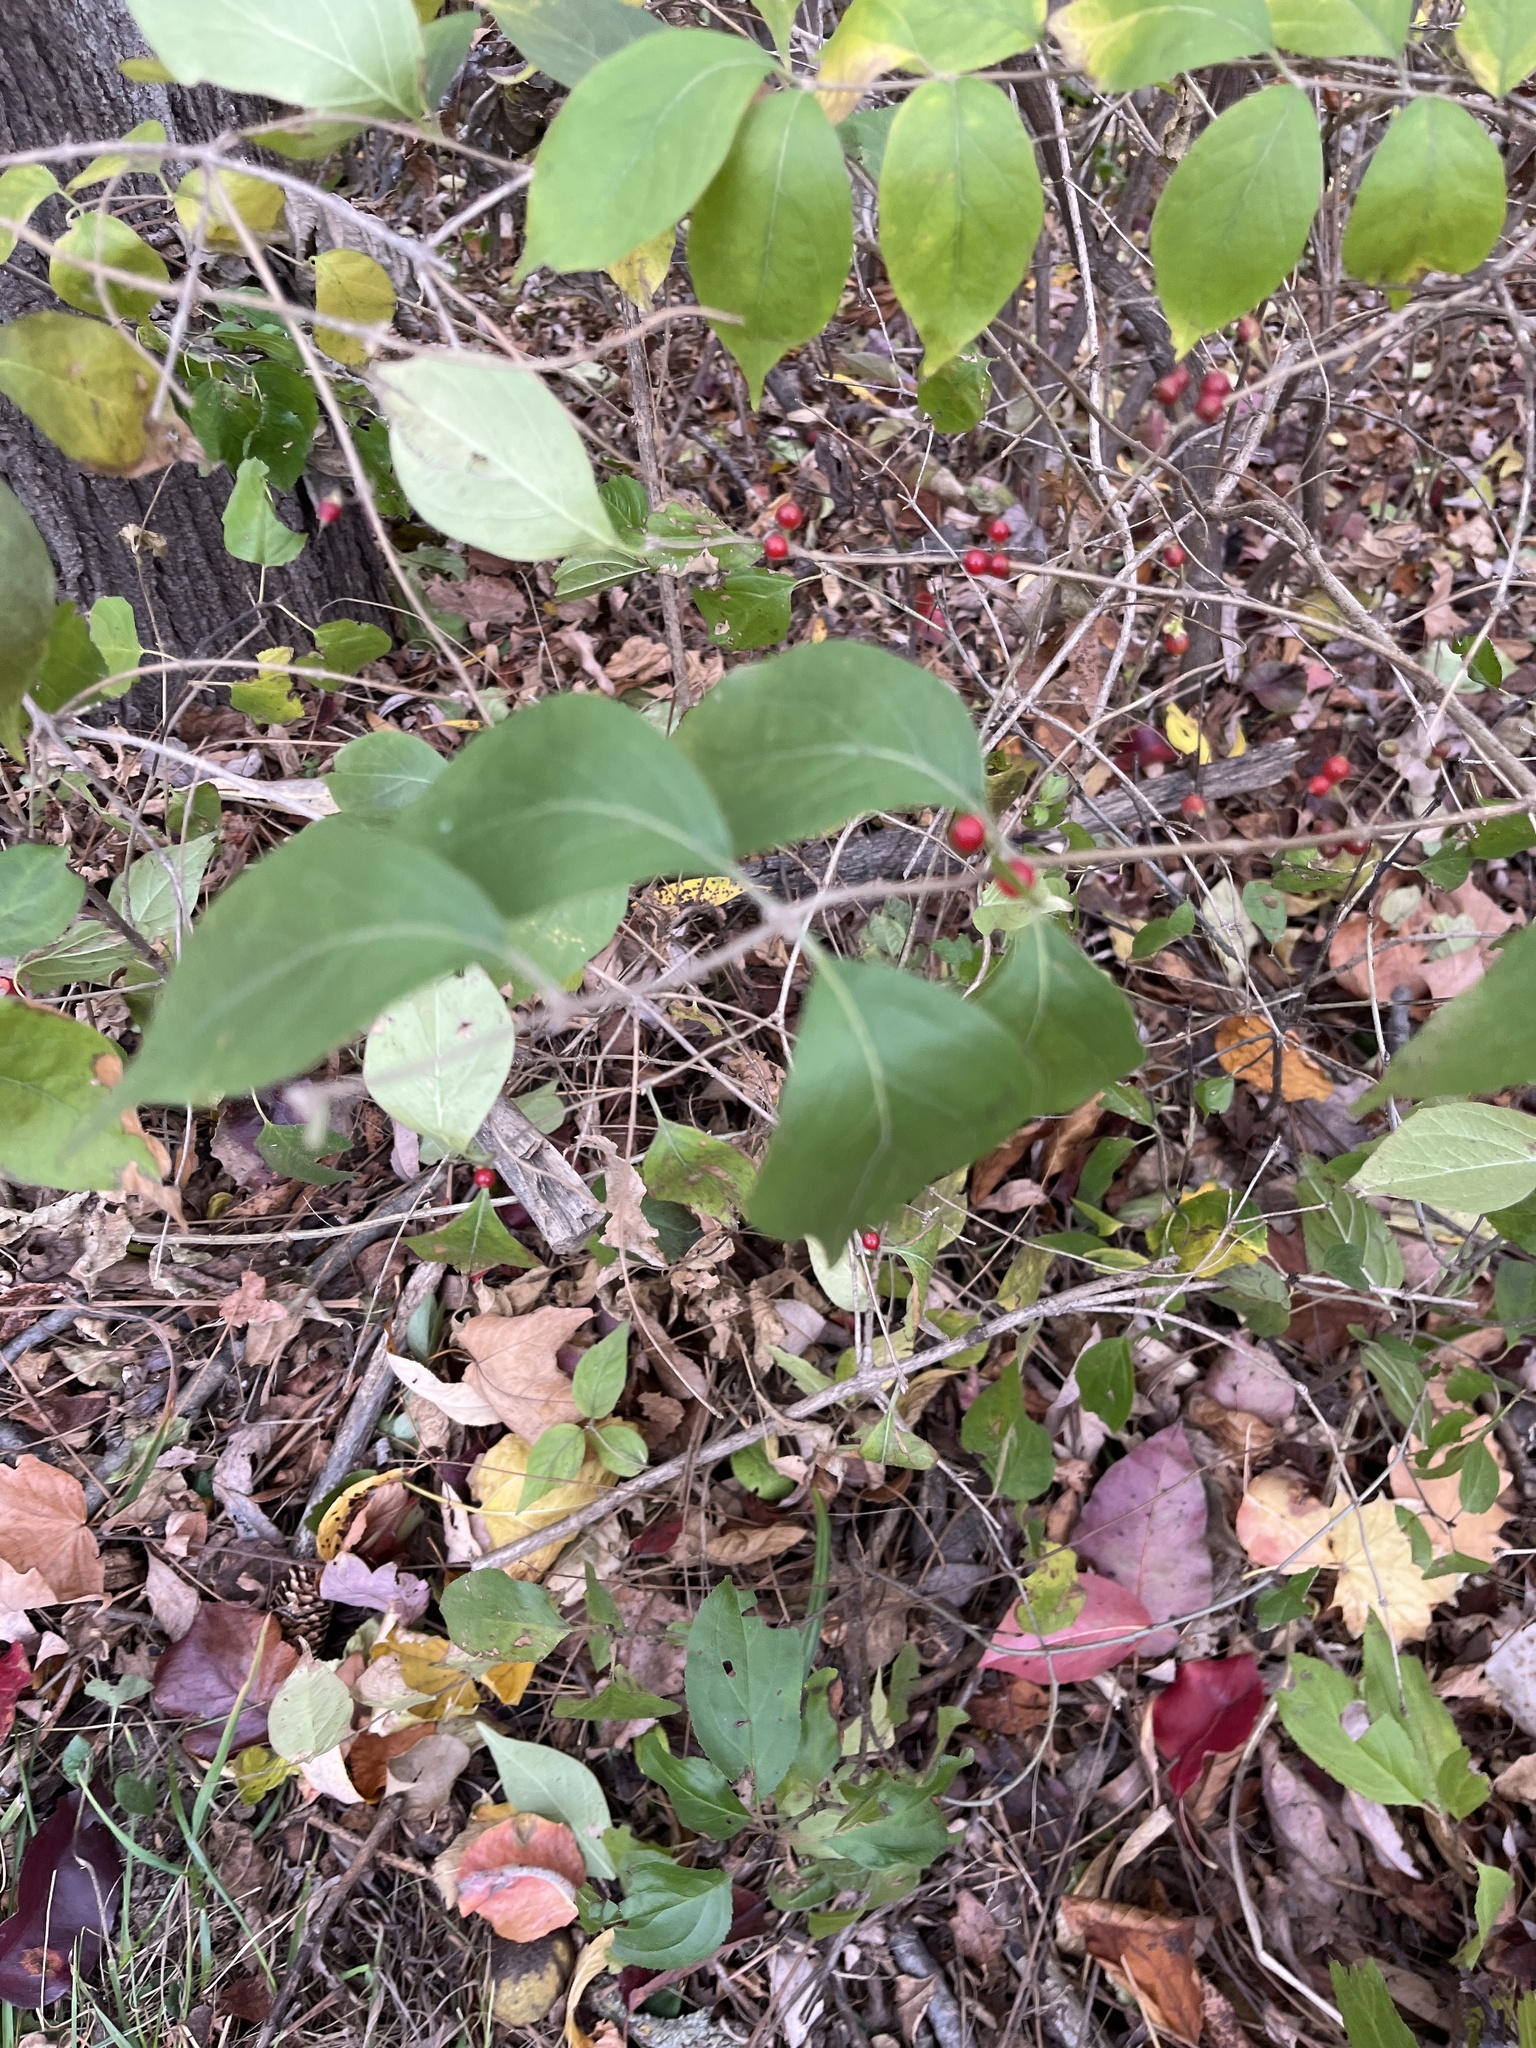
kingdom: Plantae
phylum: Tracheophyta
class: Magnoliopsida
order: Dipsacales
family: Caprifoliaceae
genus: Lonicera
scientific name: Lonicera maackii
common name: Amur honeysuckle
